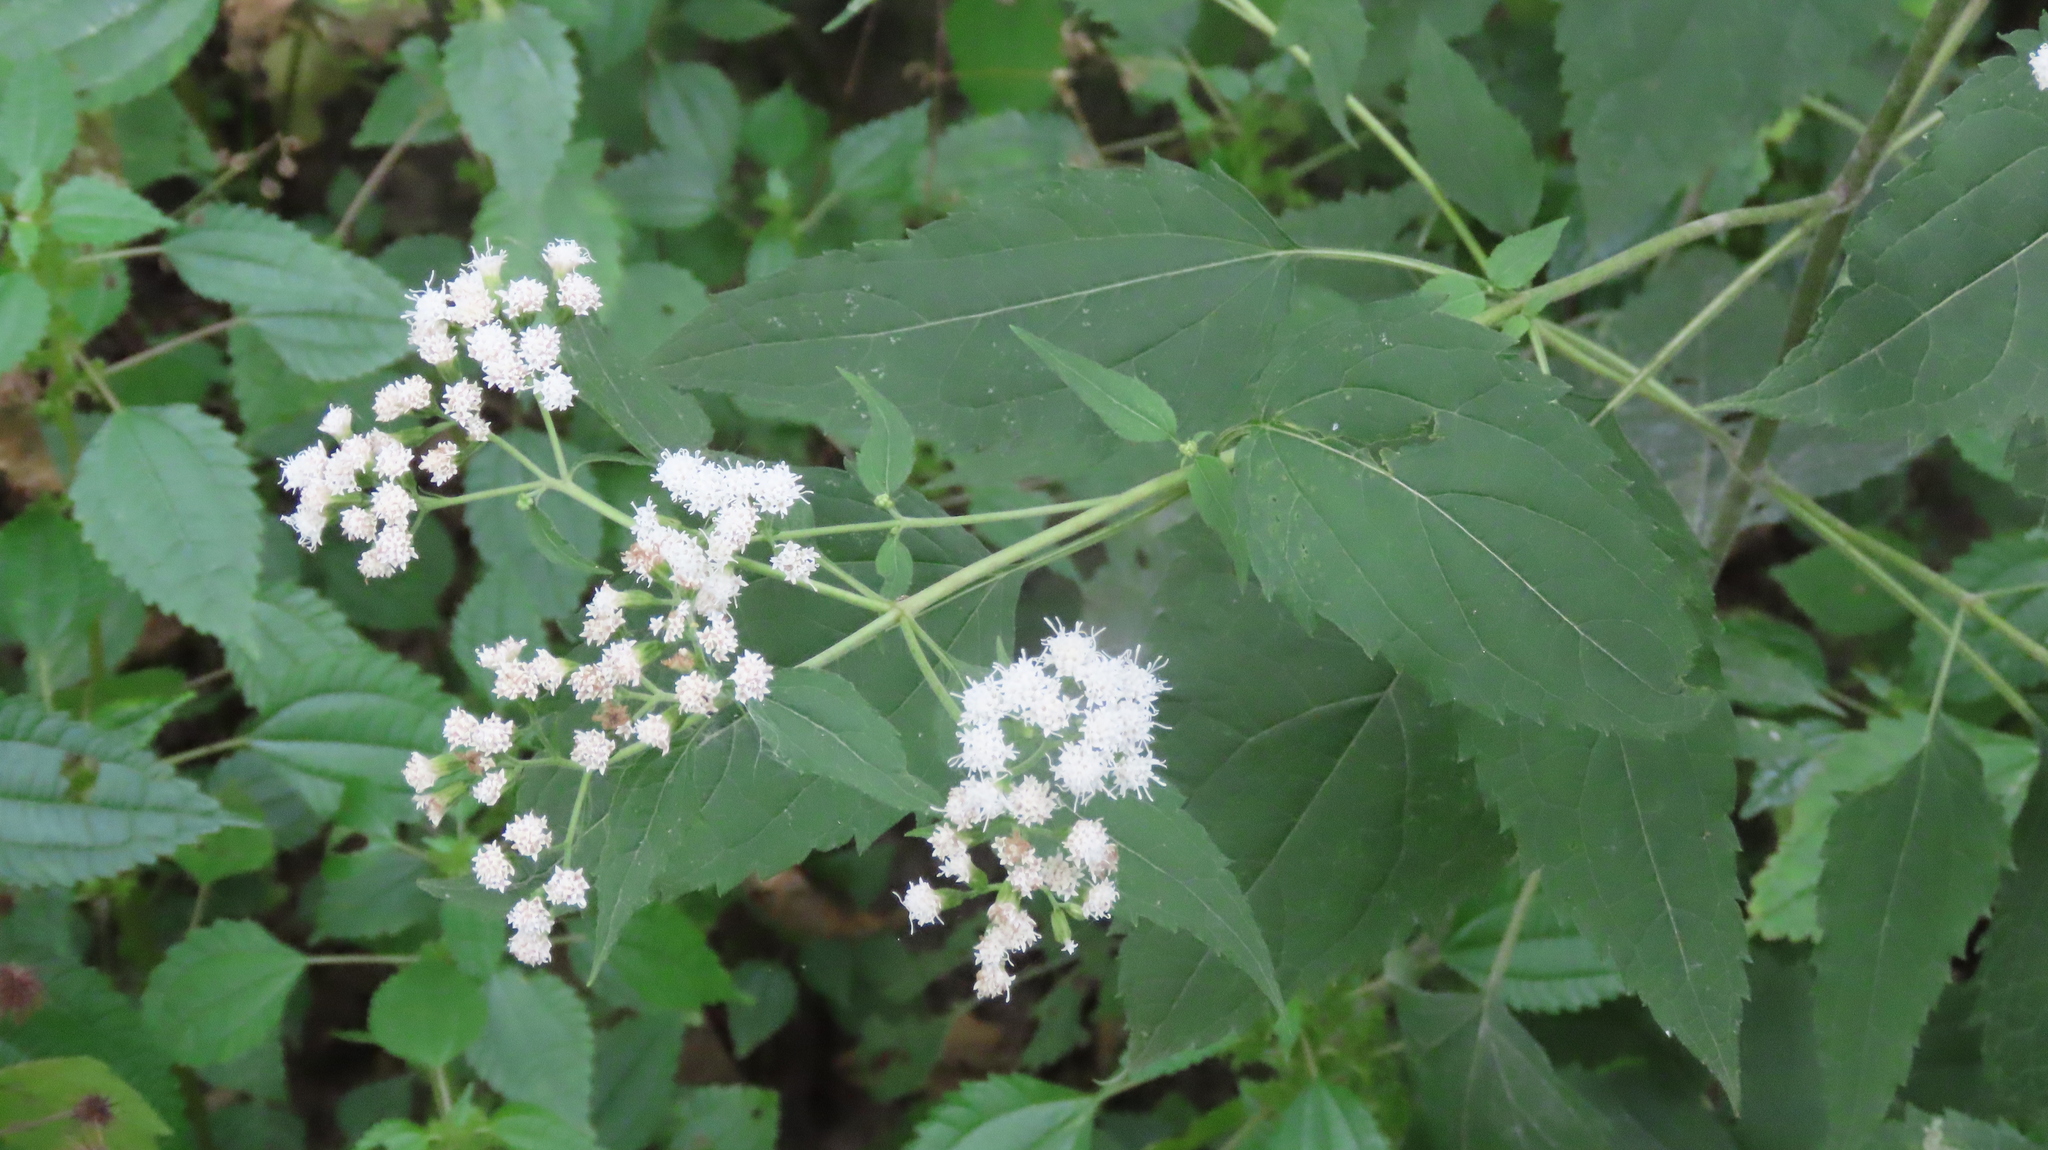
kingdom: Plantae
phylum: Tracheophyta
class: Magnoliopsida
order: Asterales
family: Asteraceae
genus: Ageratina
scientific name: Ageratina altissima
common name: White snakeroot
